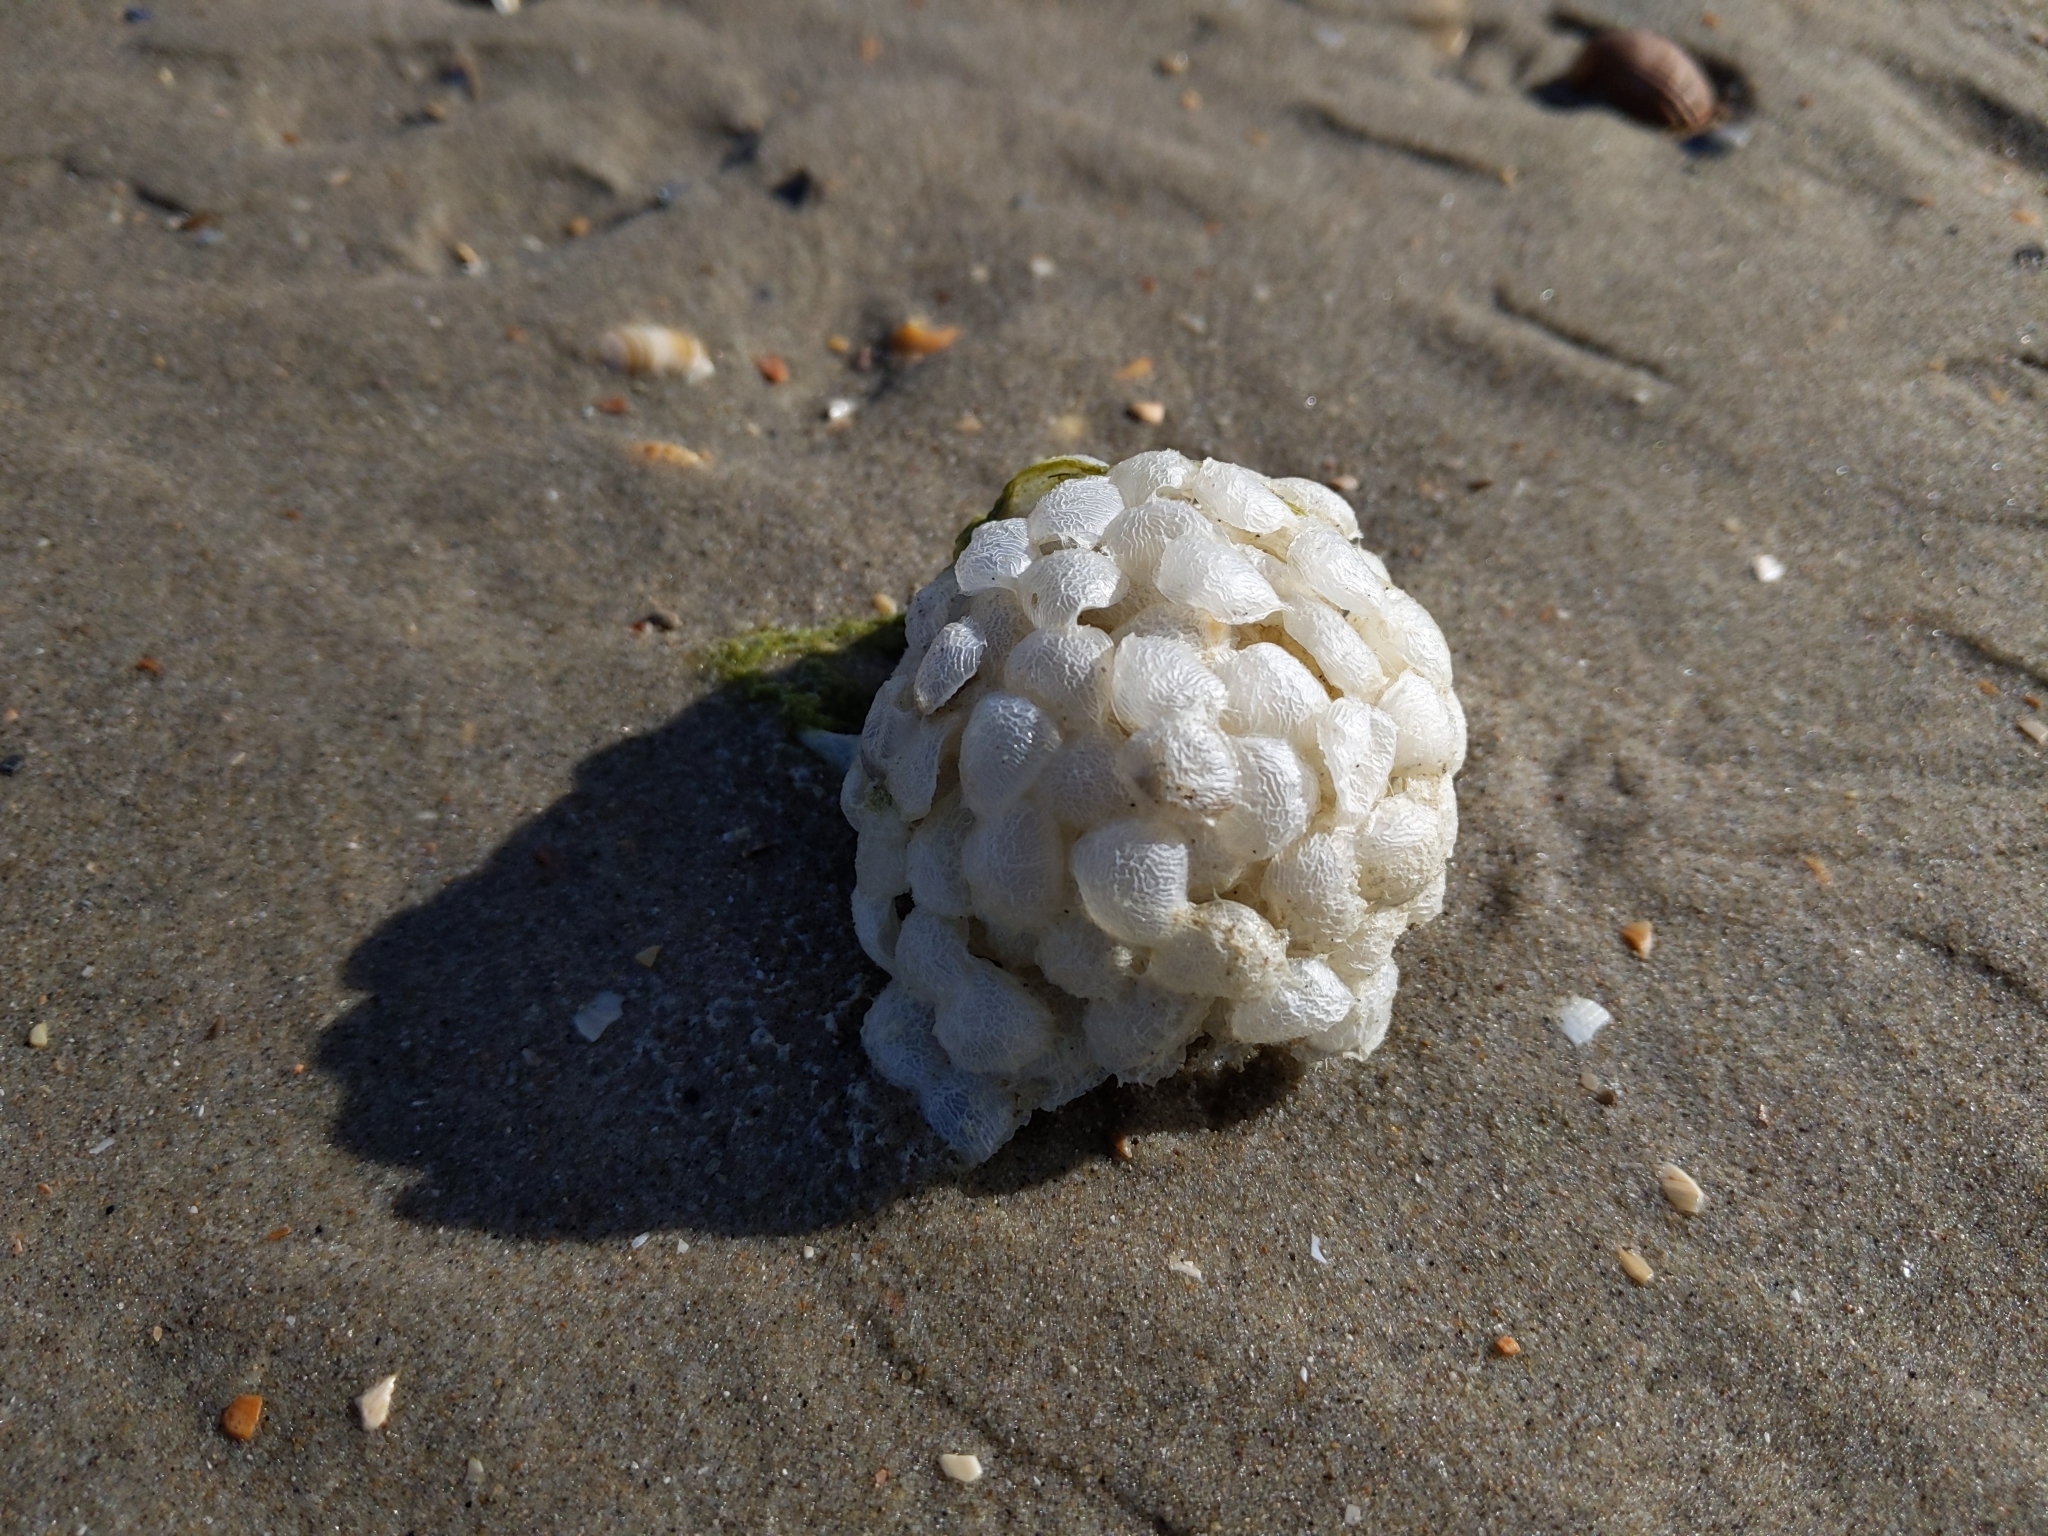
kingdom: Animalia
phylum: Mollusca
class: Gastropoda
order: Neogastropoda
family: Buccinidae
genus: Buccinum
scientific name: Buccinum undatum
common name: Common whelk
